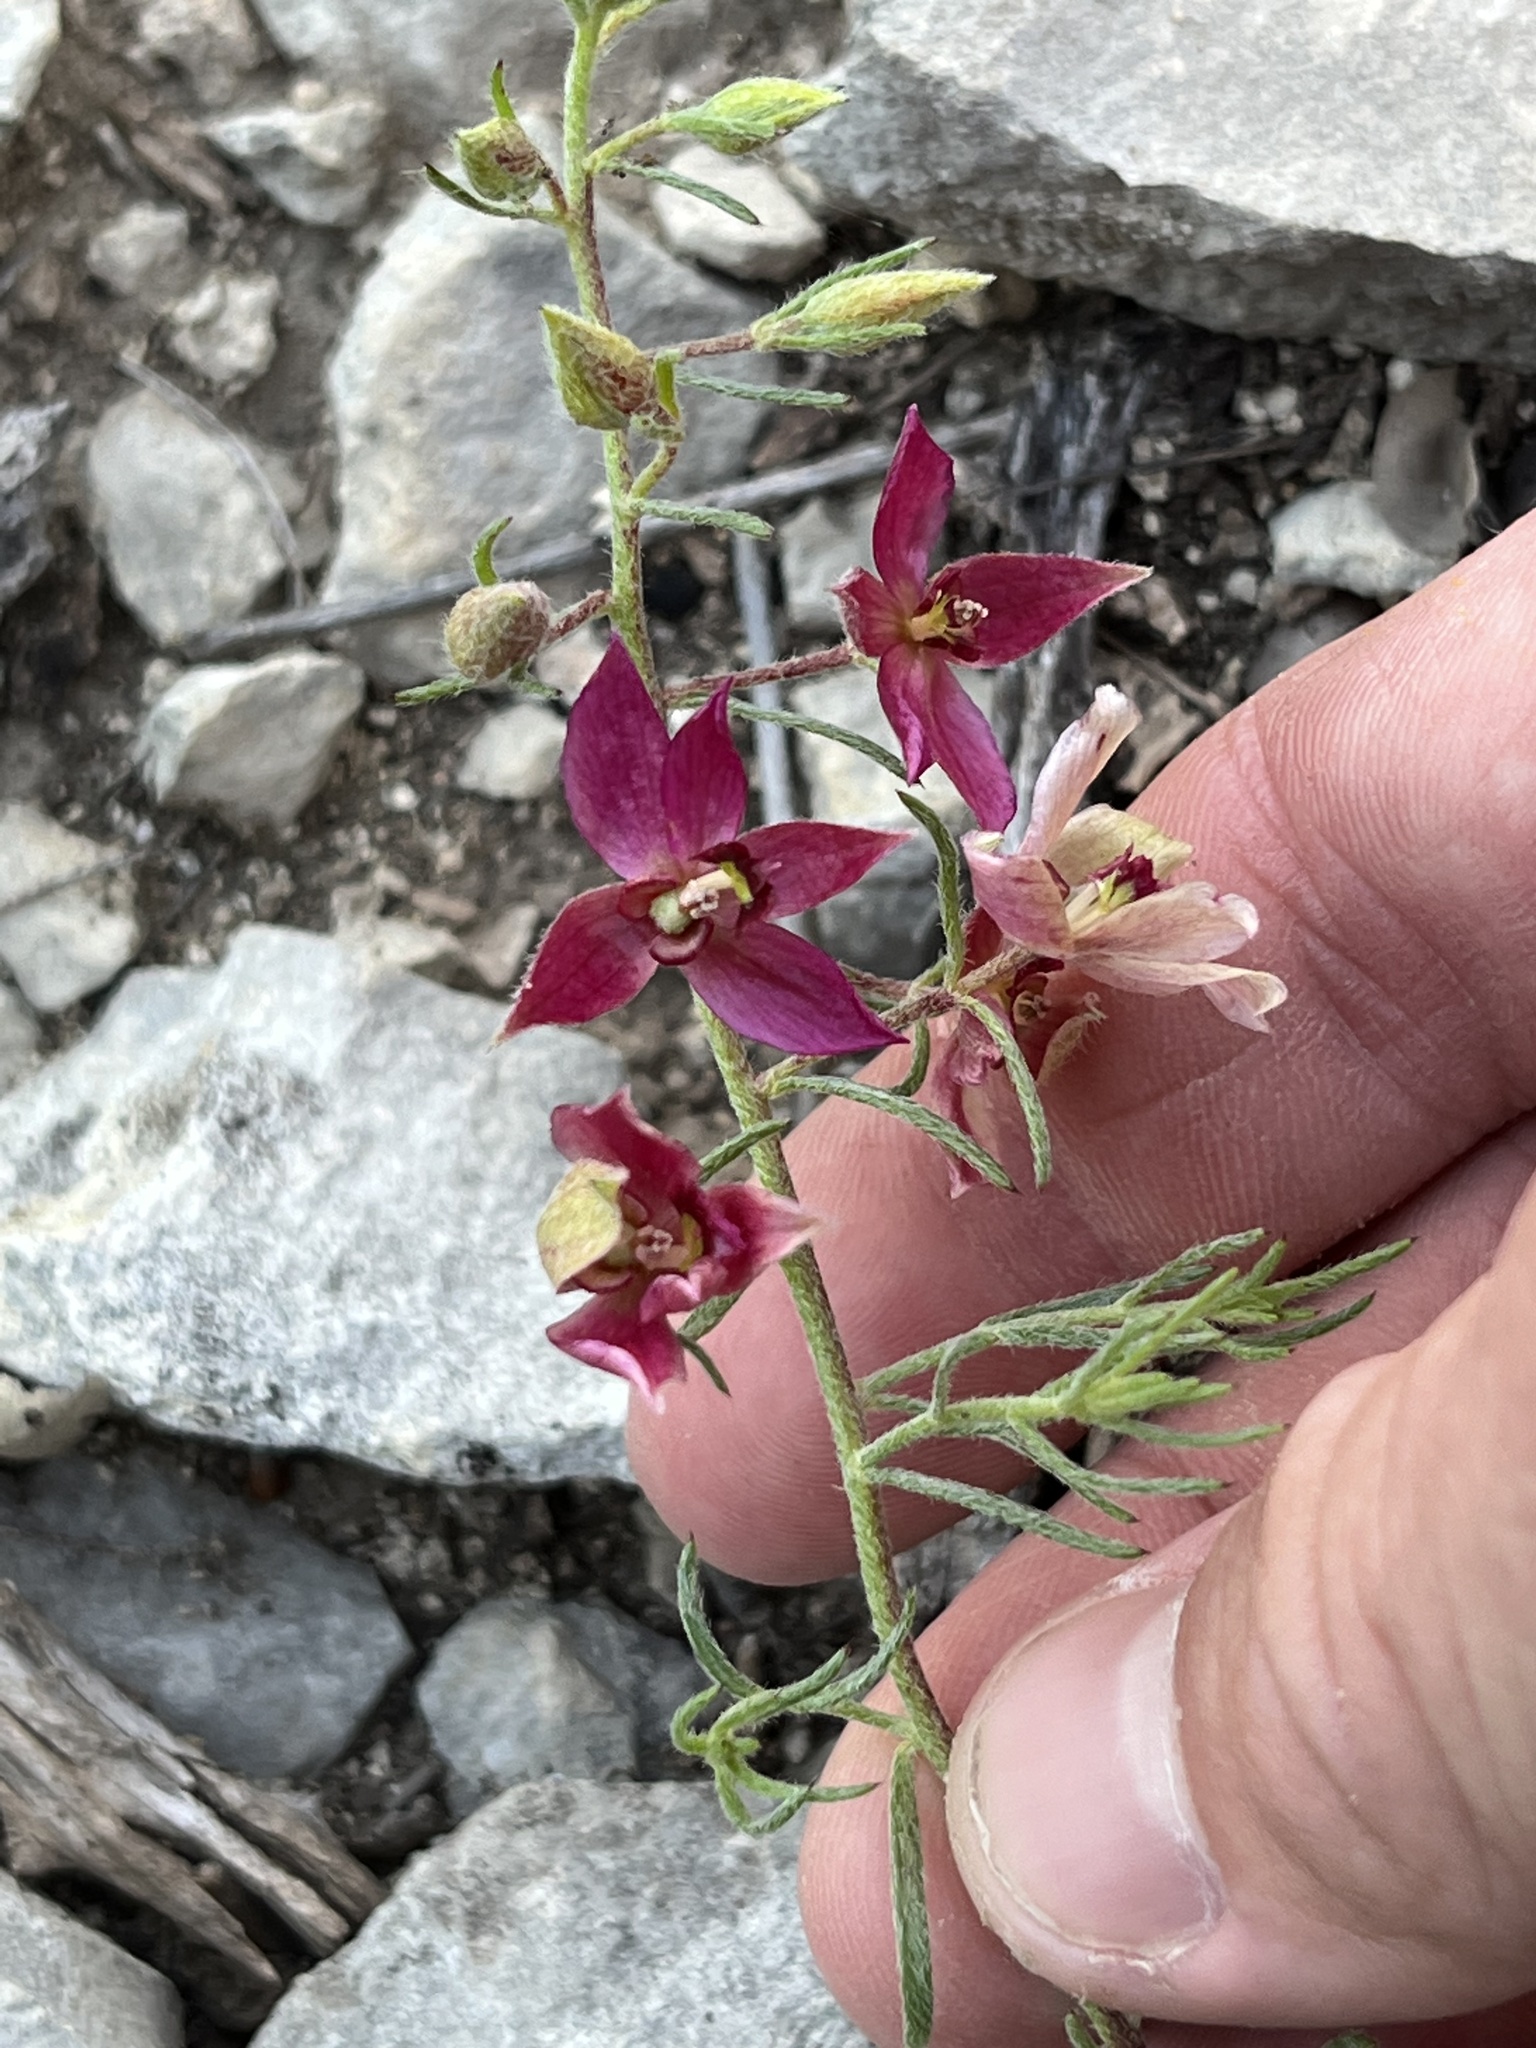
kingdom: Plantae
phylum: Tracheophyta
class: Magnoliopsida
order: Zygophyllales
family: Krameriaceae
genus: Krameria
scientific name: Krameria lanceolata
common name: Ratany
